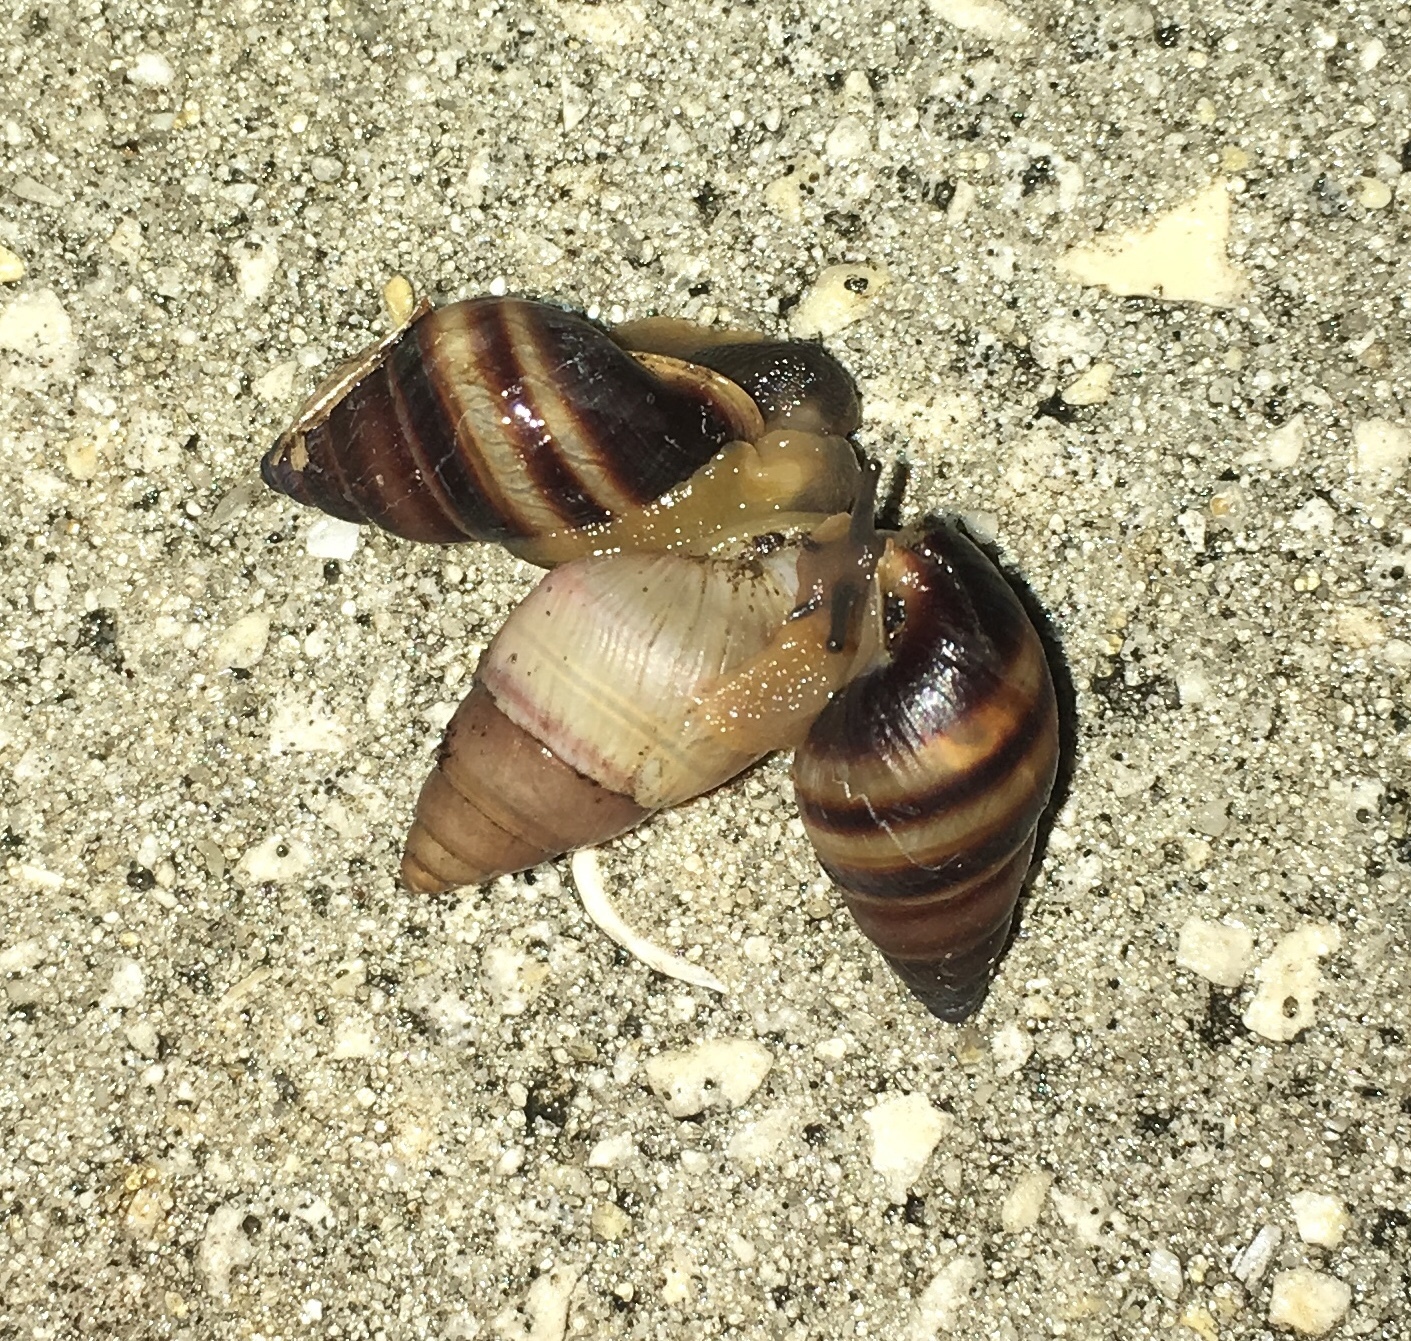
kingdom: Animalia
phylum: Mollusca
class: Gastropoda
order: Stylommatophora
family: Bulimulidae
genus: Bulimulus
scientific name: Bulimulus guadalupensis
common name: West indian bulimulus
